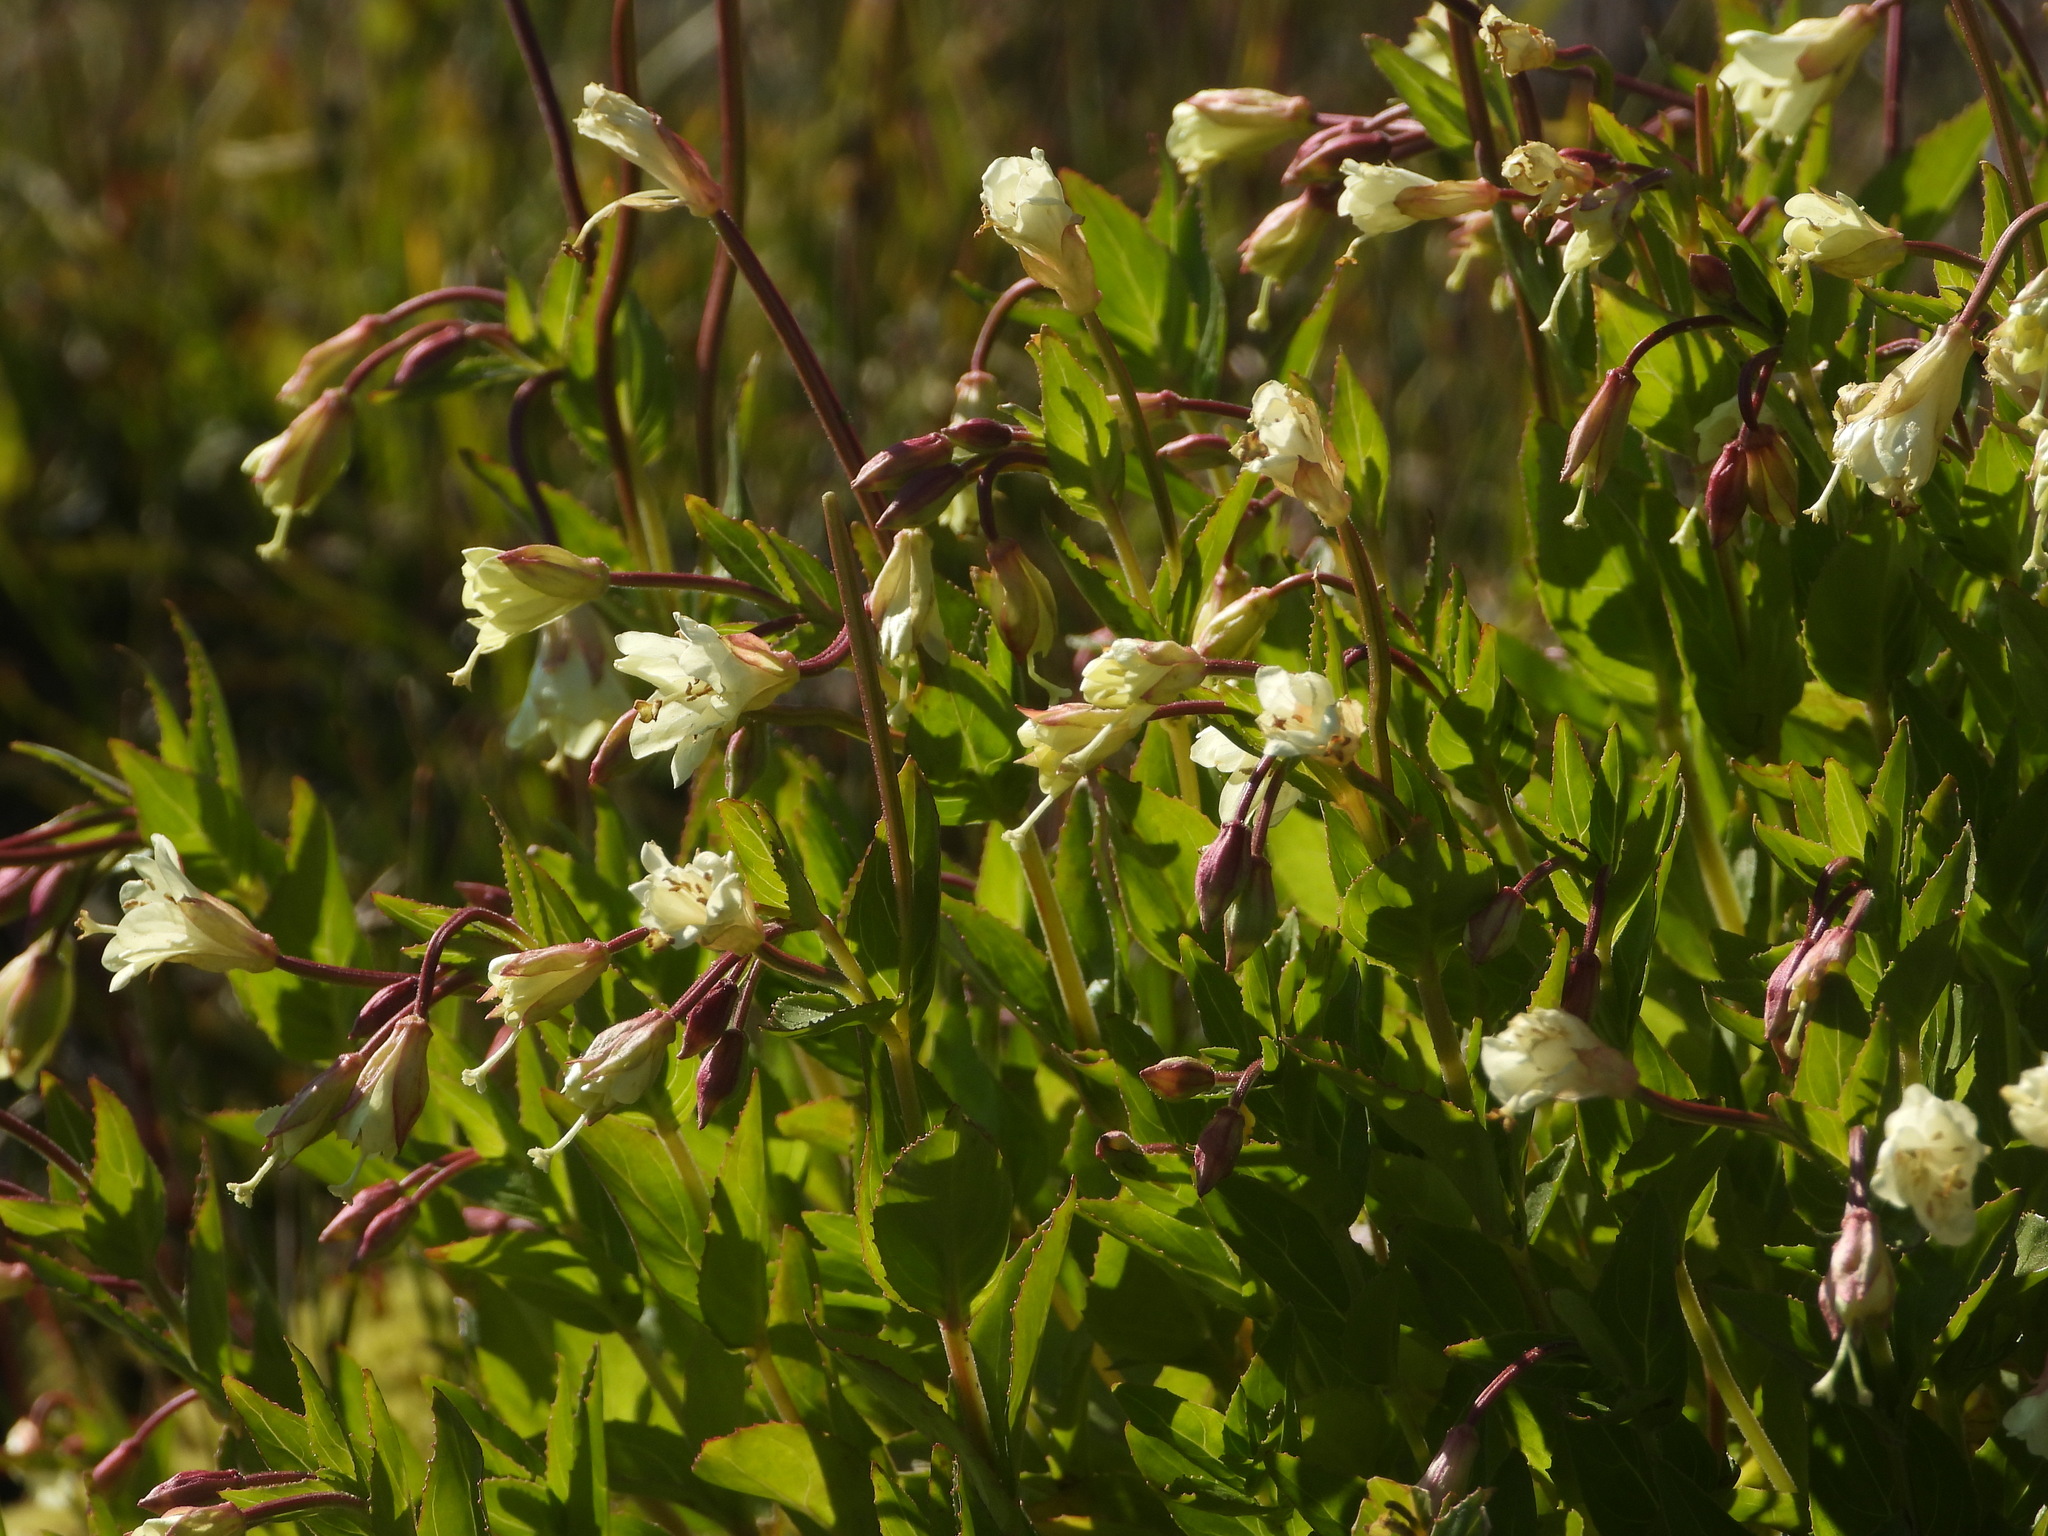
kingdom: Plantae
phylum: Tracheophyta
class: Magnoliopsida
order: Myrtales
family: Onagraceae
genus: Epilobium
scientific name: Epilobium luteum
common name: Yellow willowherb
